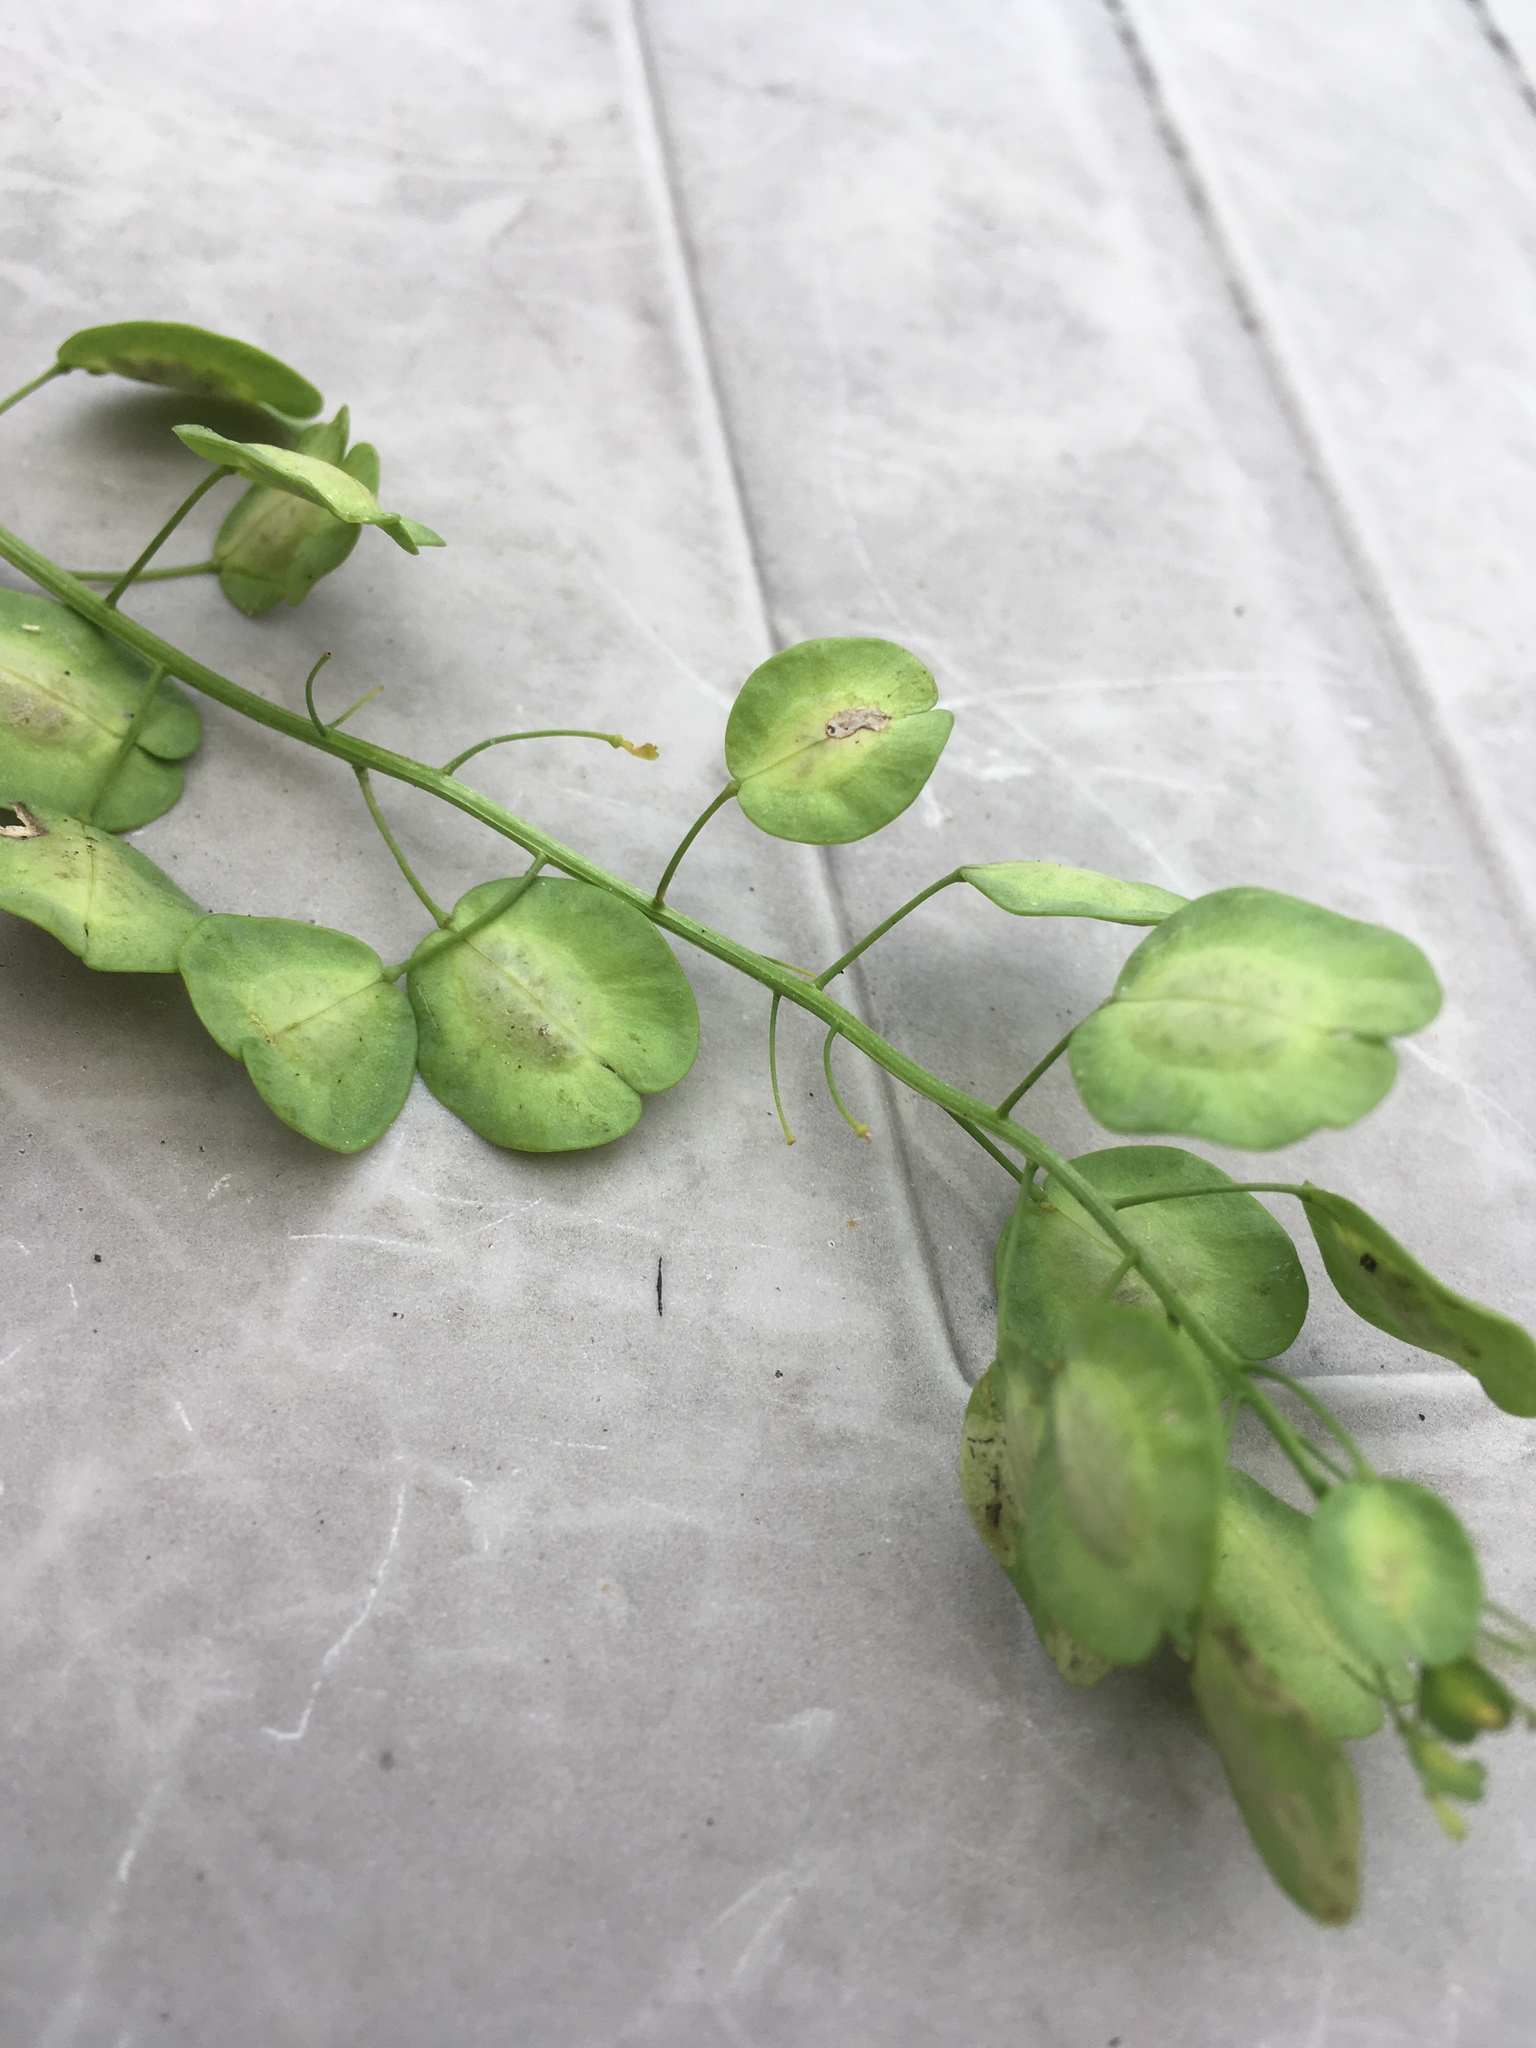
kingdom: Plantae
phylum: Tracheophyta
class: Magnoliopsida
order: Brassicales
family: Brassicaceae
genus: Thlaspi
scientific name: Thlaspi arvense
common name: Field pennycress
